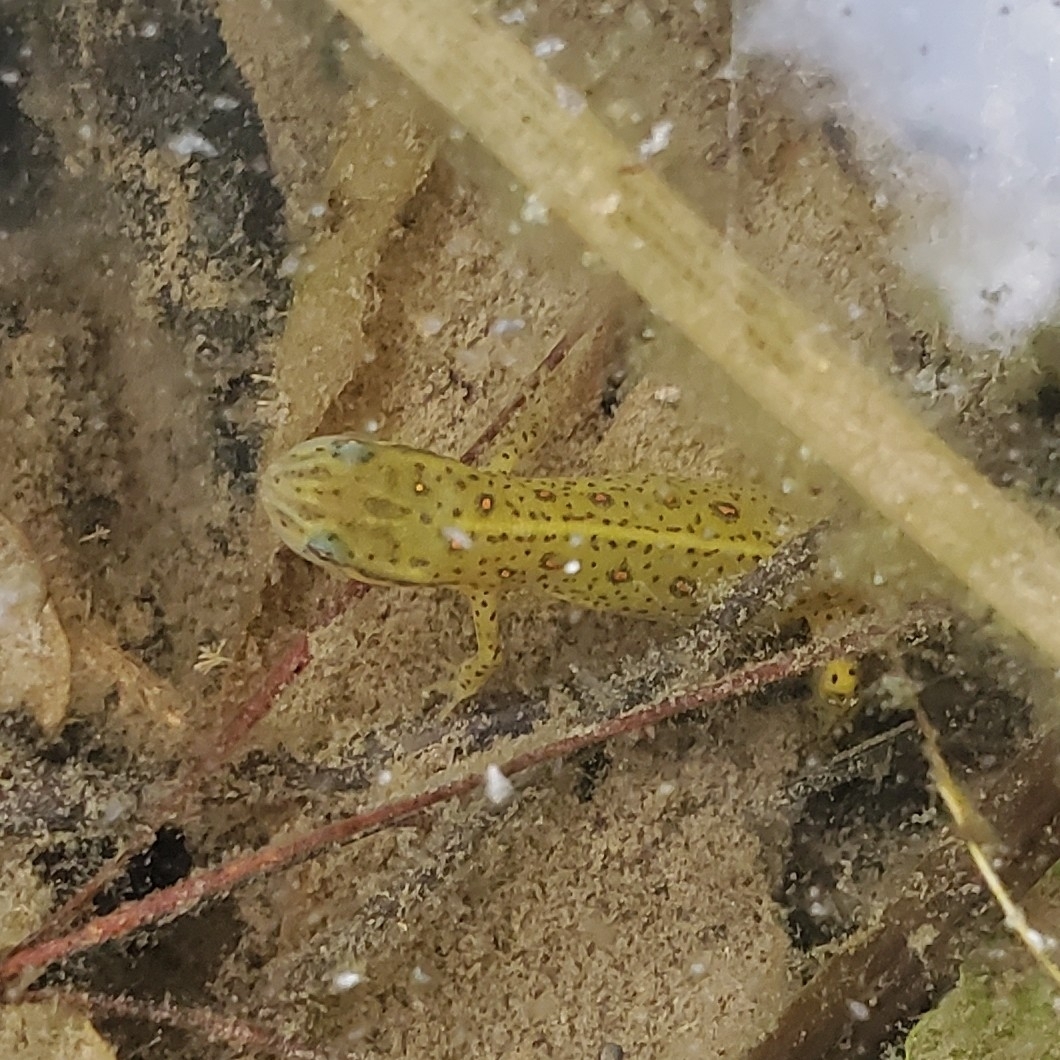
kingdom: Animalia
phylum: Chordata
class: Amphibia
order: Caudata
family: Salamandridae
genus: Notophthalmus
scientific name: Notophthalmus viridescens
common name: Eastern newt
